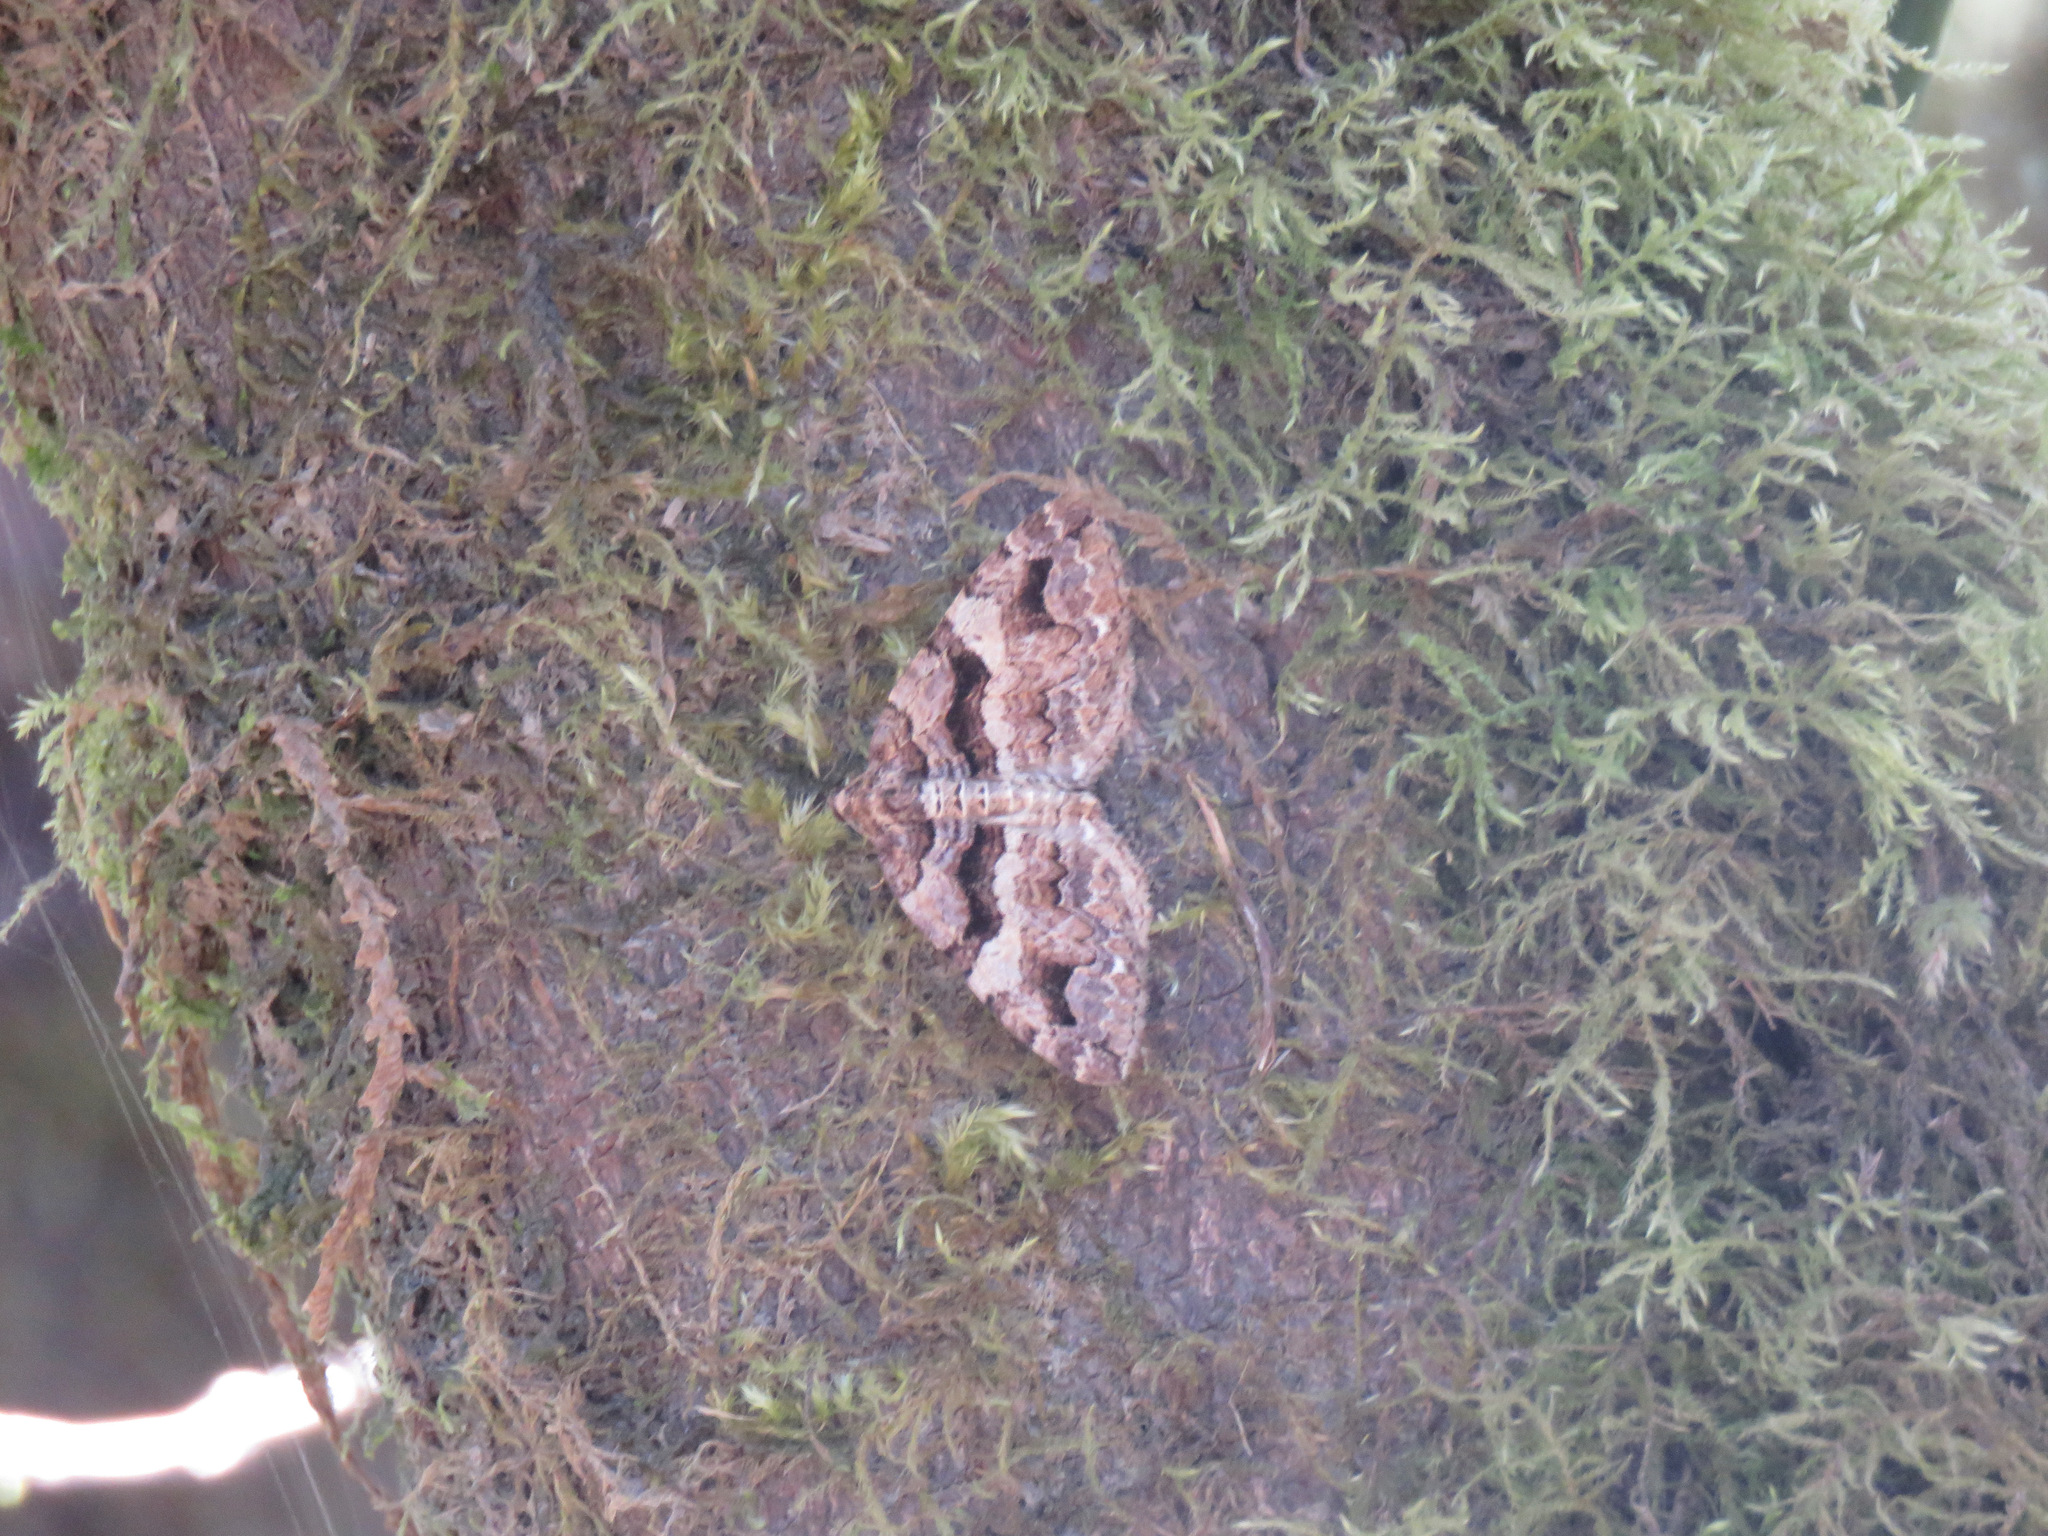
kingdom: Animalia
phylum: Arthropoda
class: Insecta
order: Lepidoptera
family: Geometridae
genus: Anticlea
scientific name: Anticlea vasiliata
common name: Variable carpet
